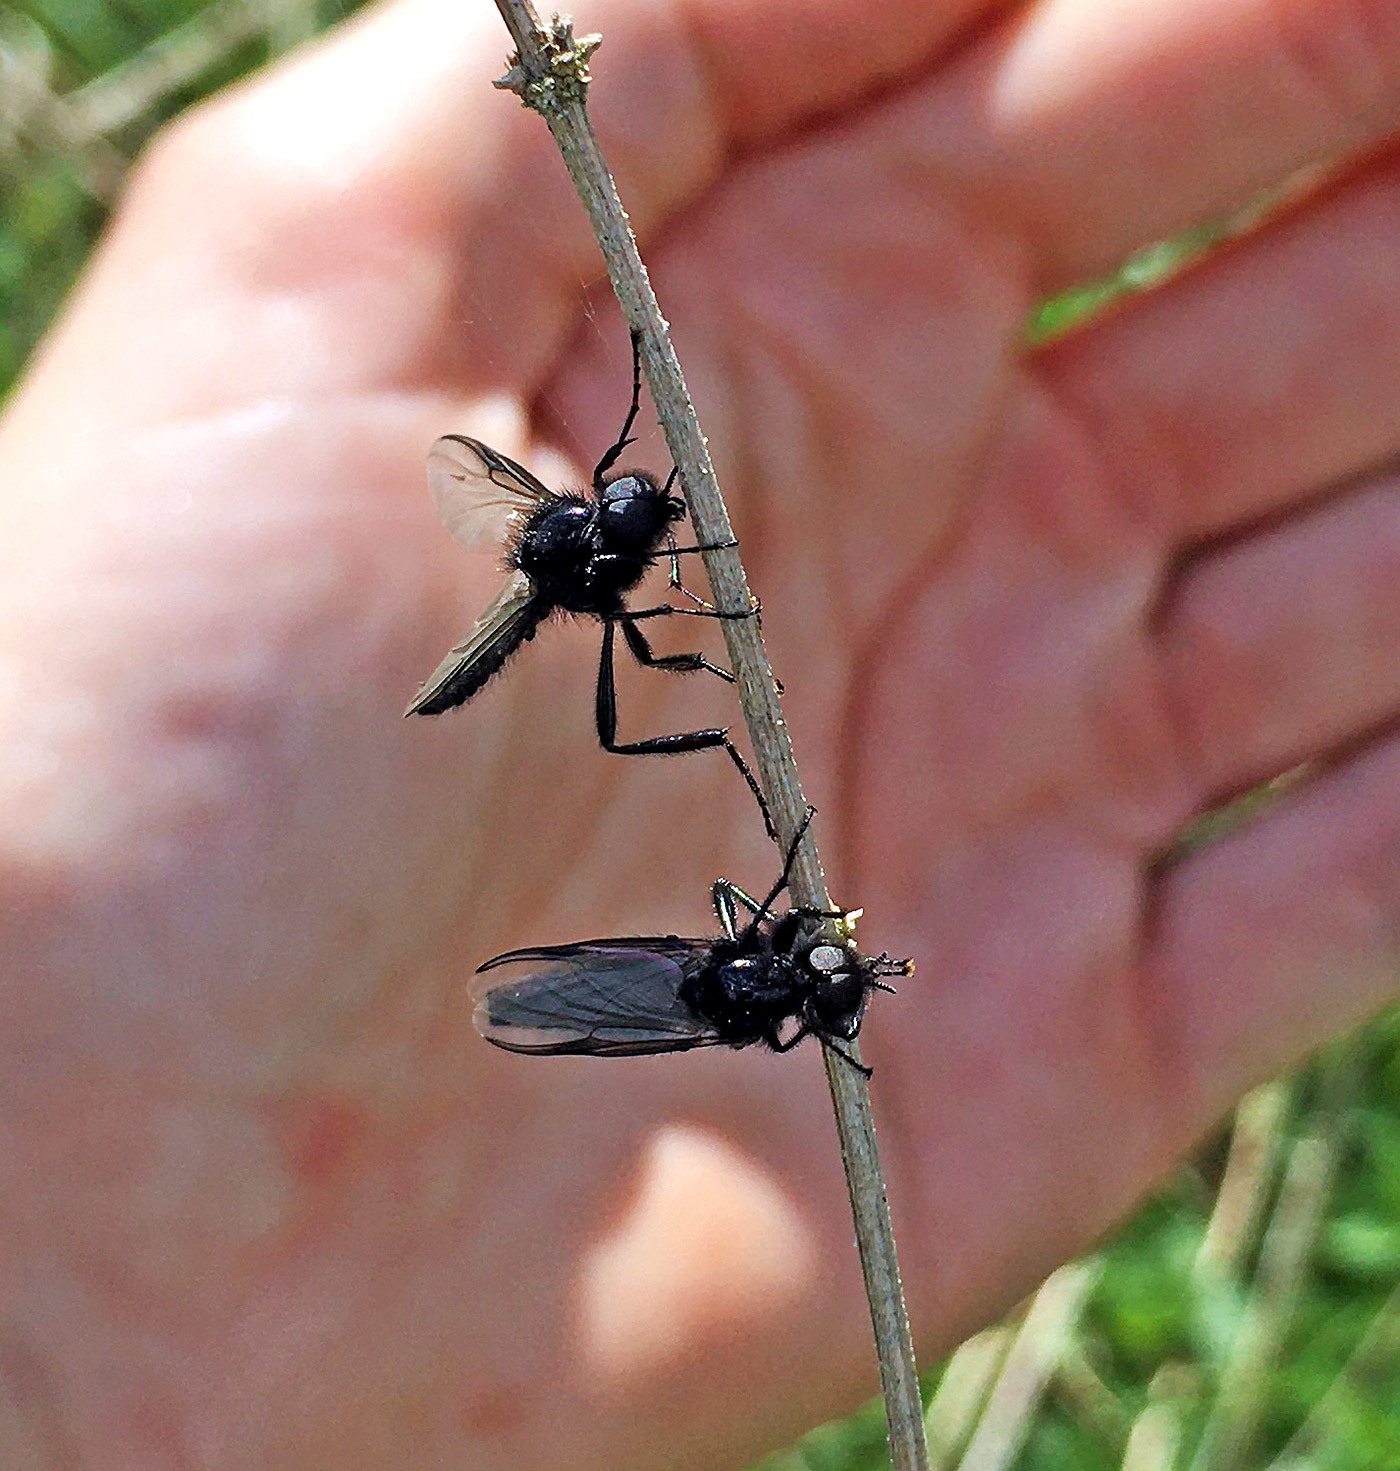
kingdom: Animalia
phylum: Arthropoda
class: Insecta
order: Diptera
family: Bibionidae
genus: Bibio
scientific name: Bibio marci
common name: St marks fly
